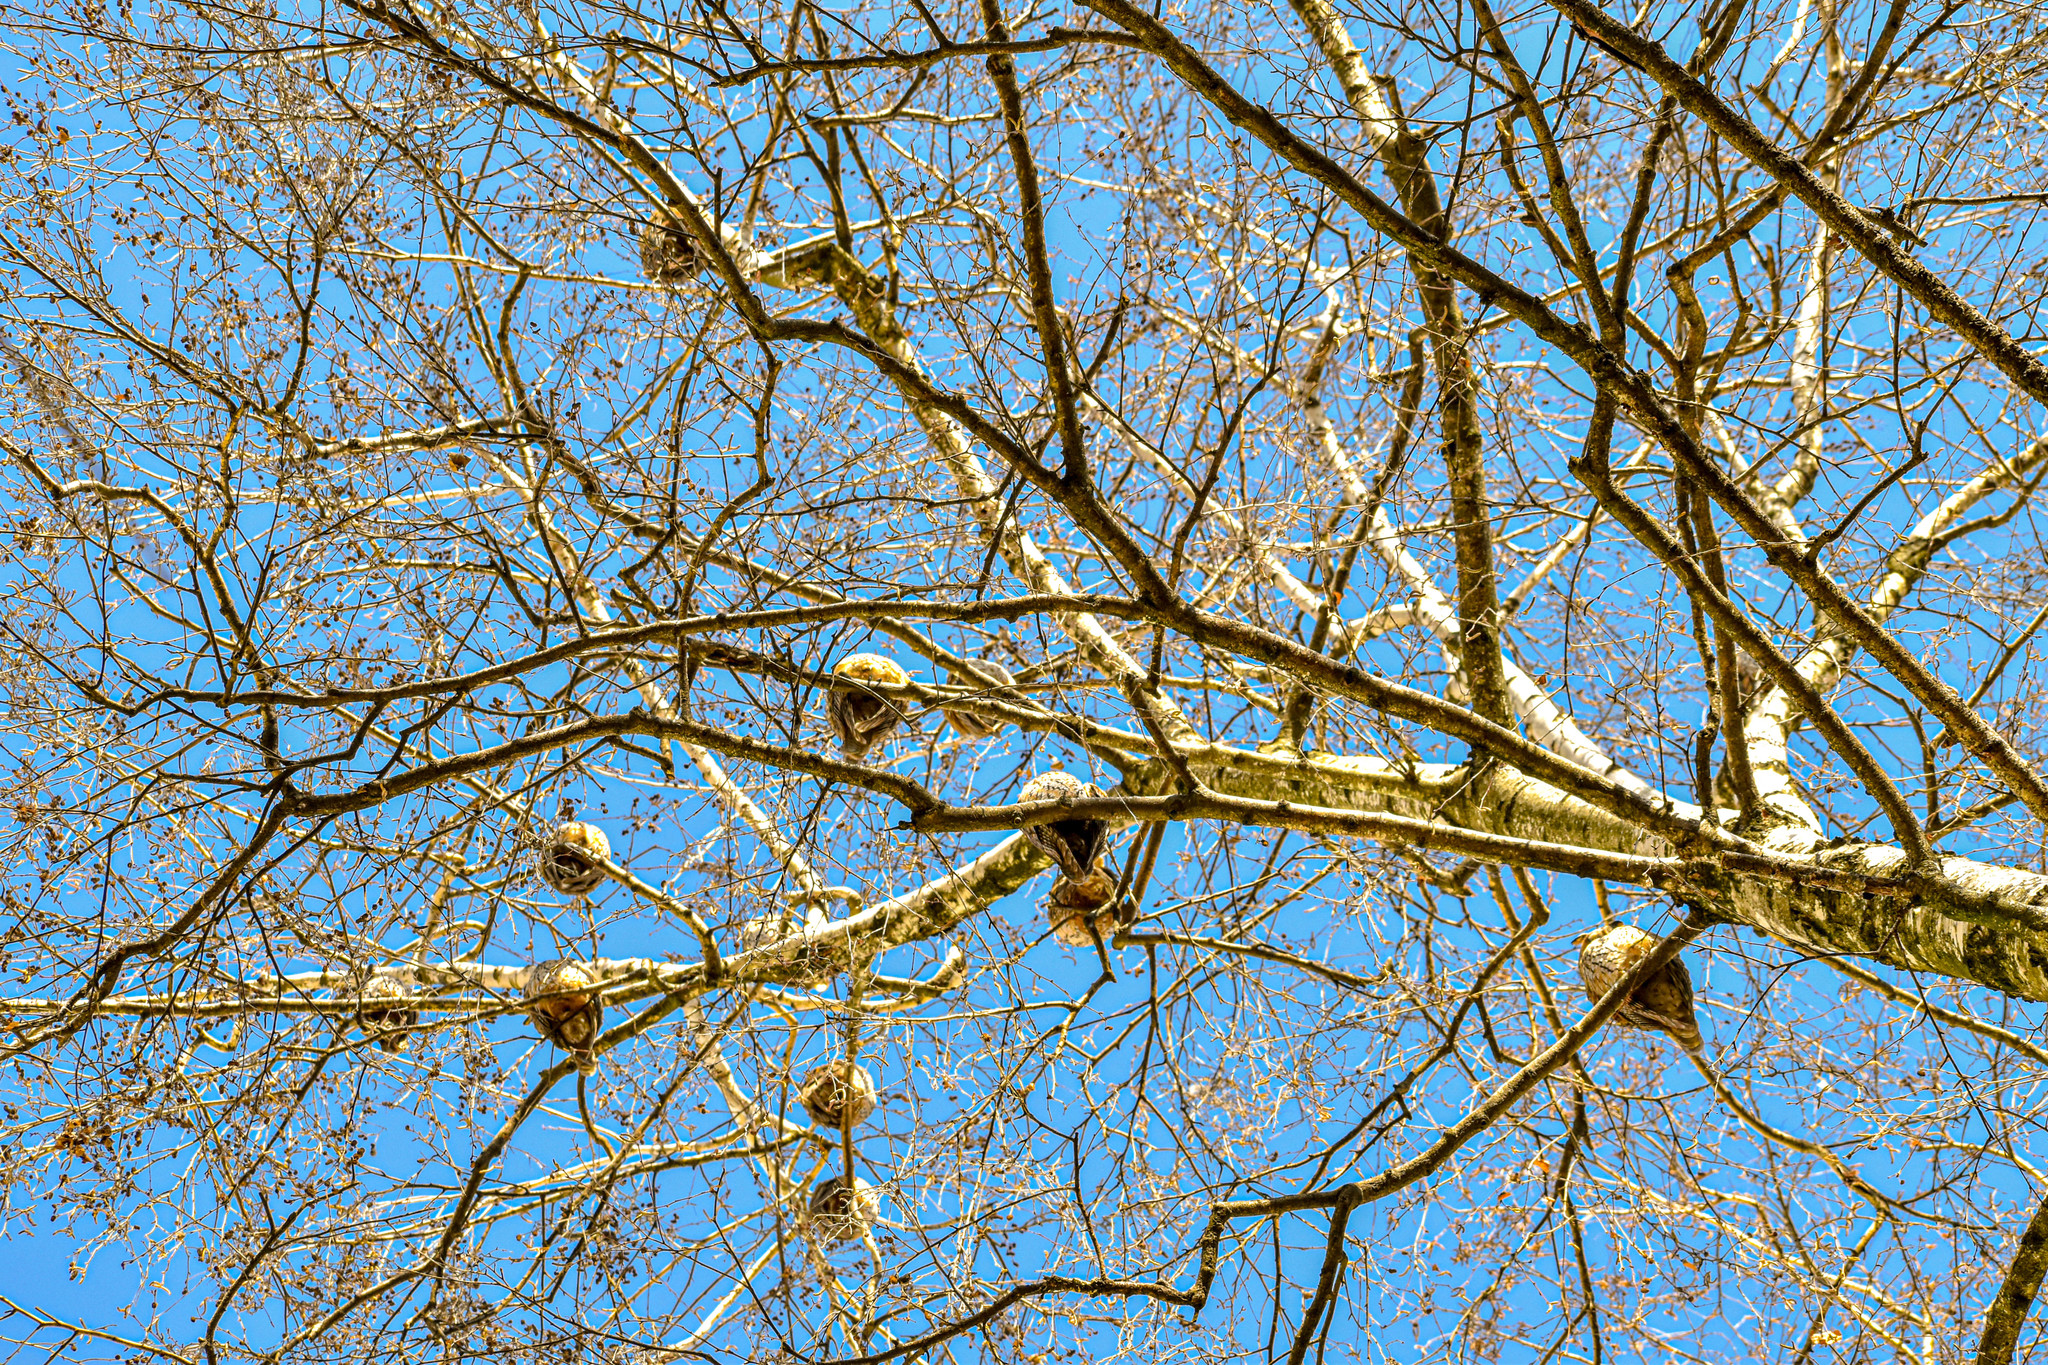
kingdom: Animalia
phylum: Chordata
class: Aves
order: Strigiformes
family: Strigidae
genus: Asio
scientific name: Asio otus
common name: Long-eared owl
